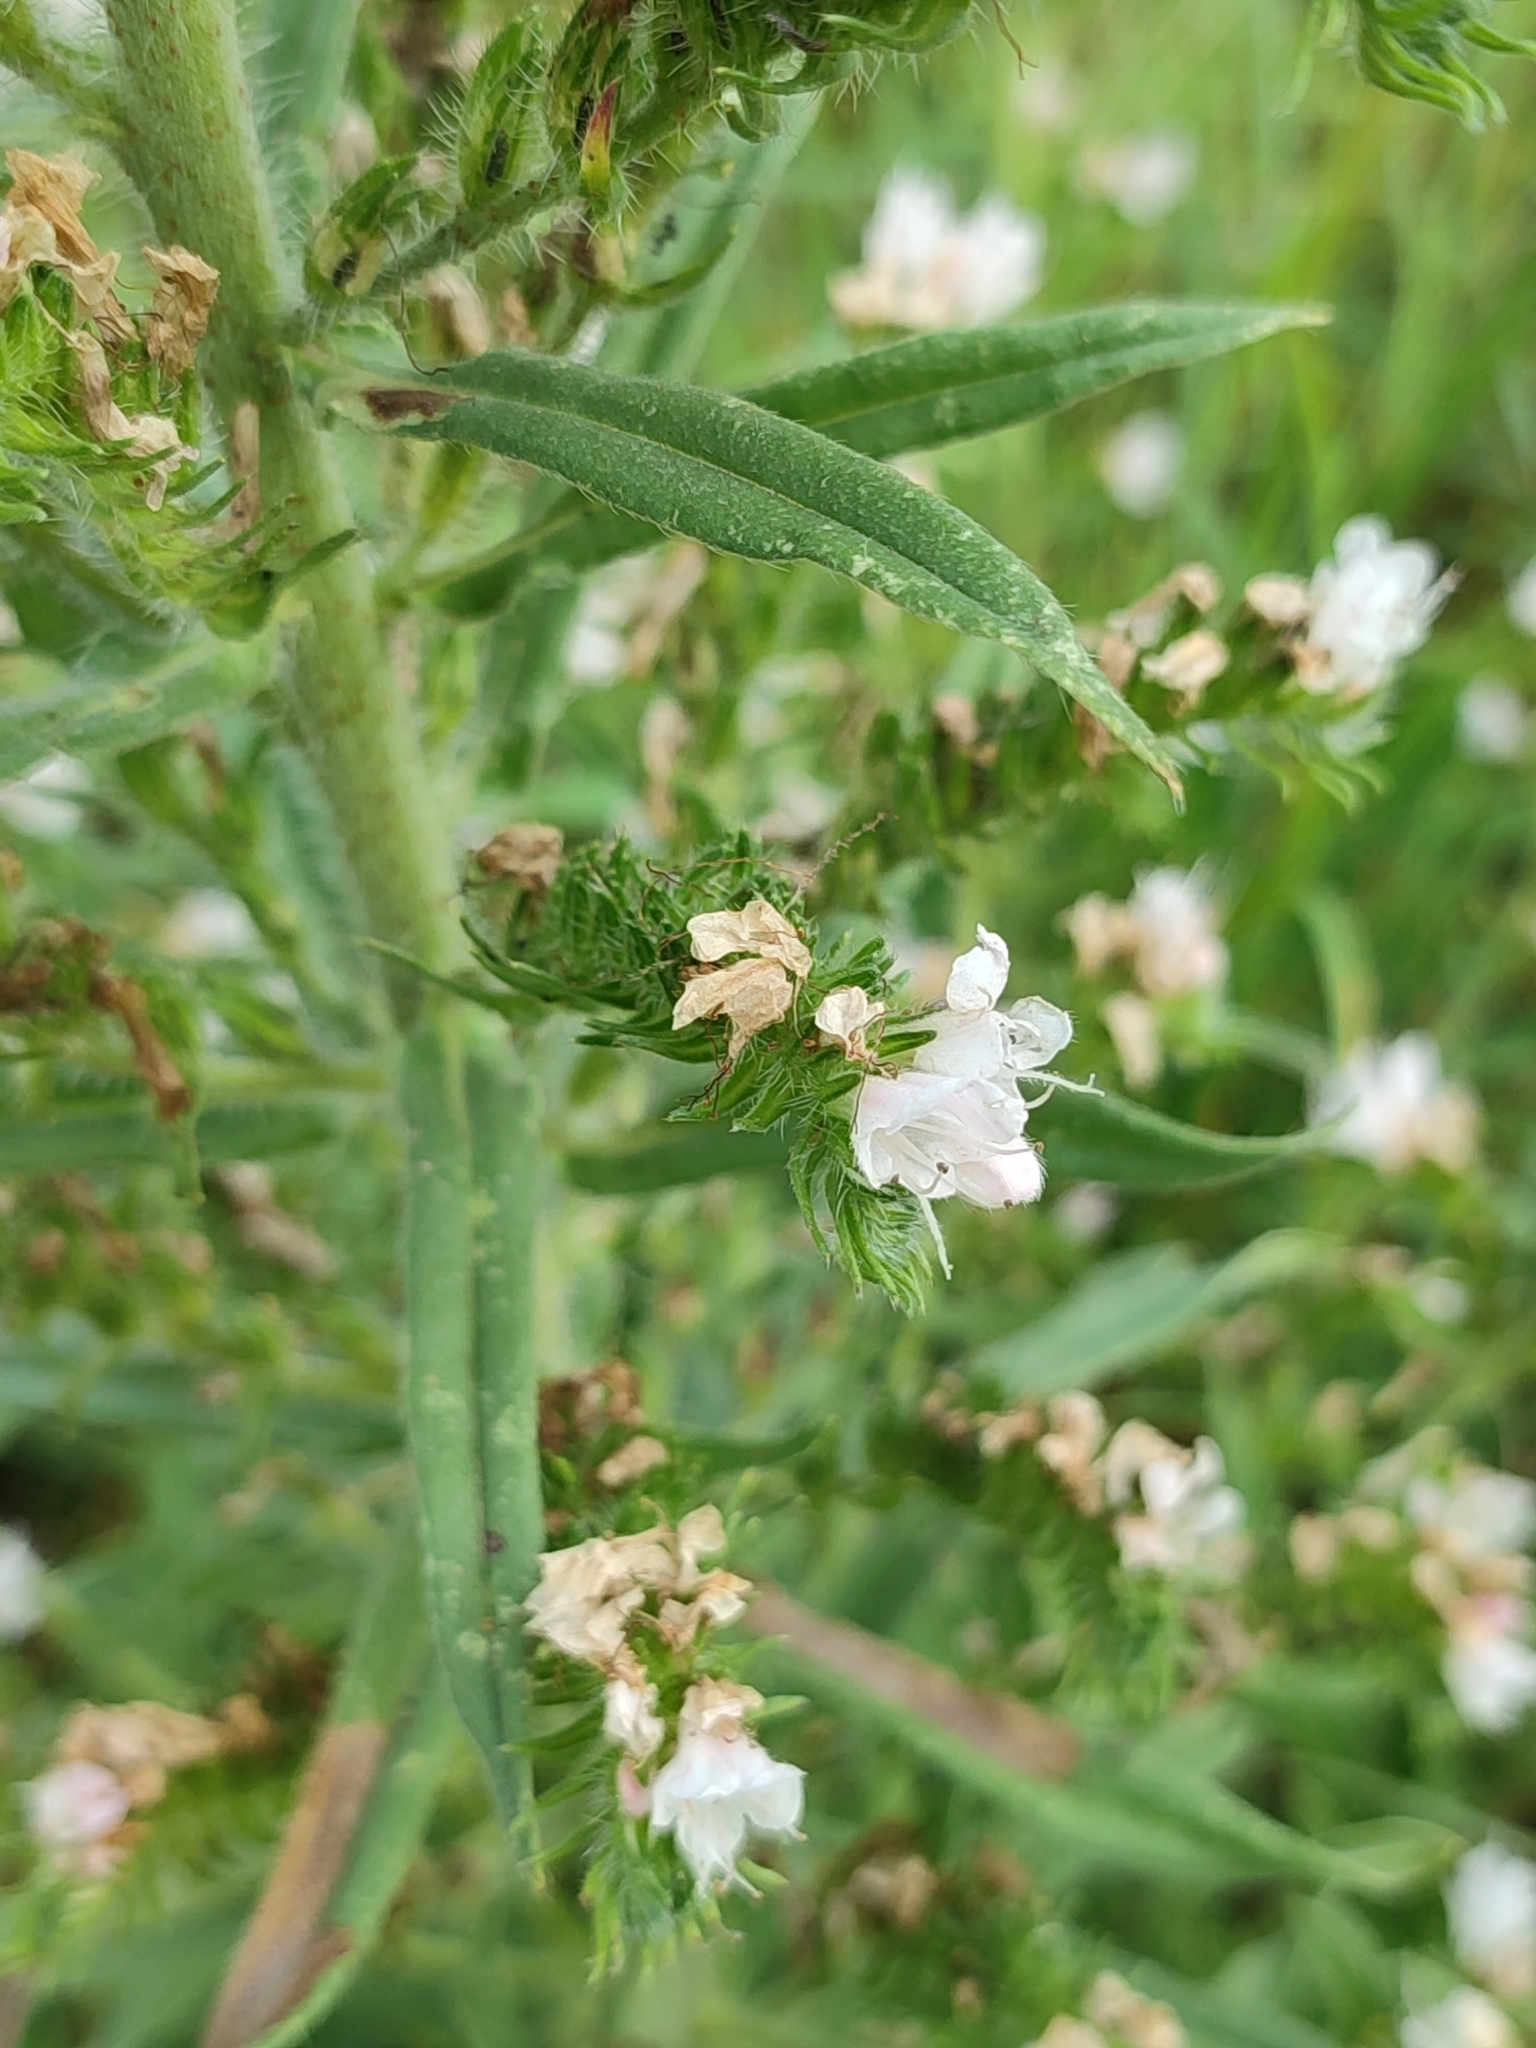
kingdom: Plantae
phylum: Tracheophyta
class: Magnoliopsida
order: Boraginales
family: Boraginaceae
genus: Echium
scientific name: Echium vulgare
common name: Common viper's bugloss
